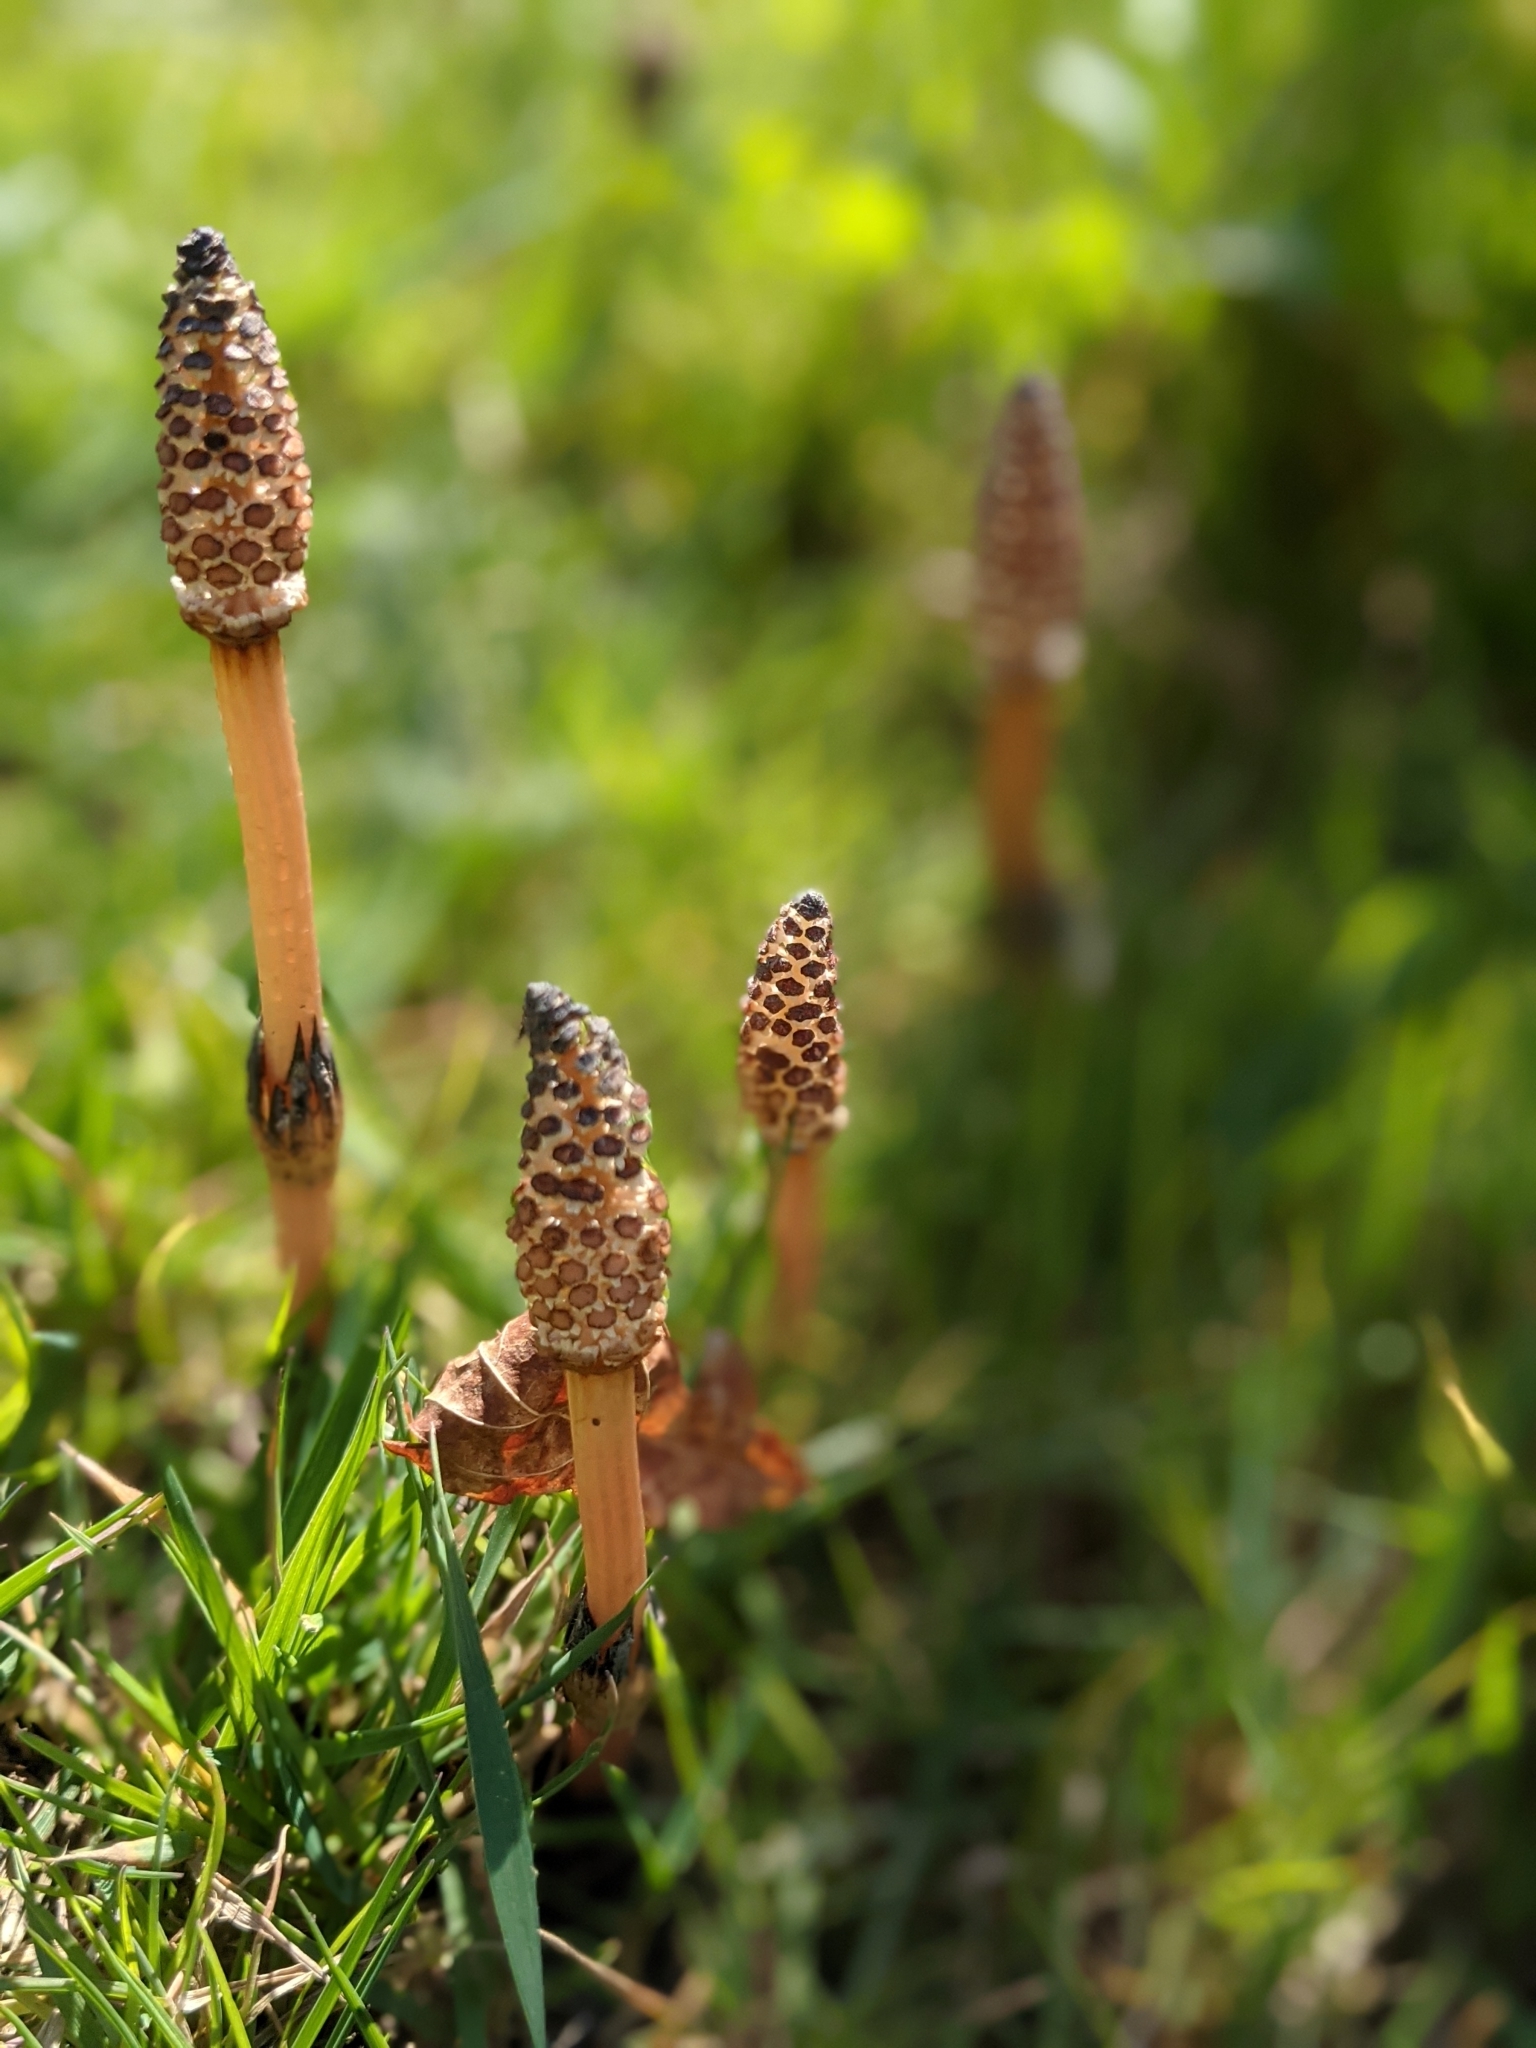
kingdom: Plantae
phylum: Tracheophyta
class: Polypodiopsida
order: Equisetales
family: Equisetaceae
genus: Equisetum
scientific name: Equisetum arvense
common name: Field horsetail
